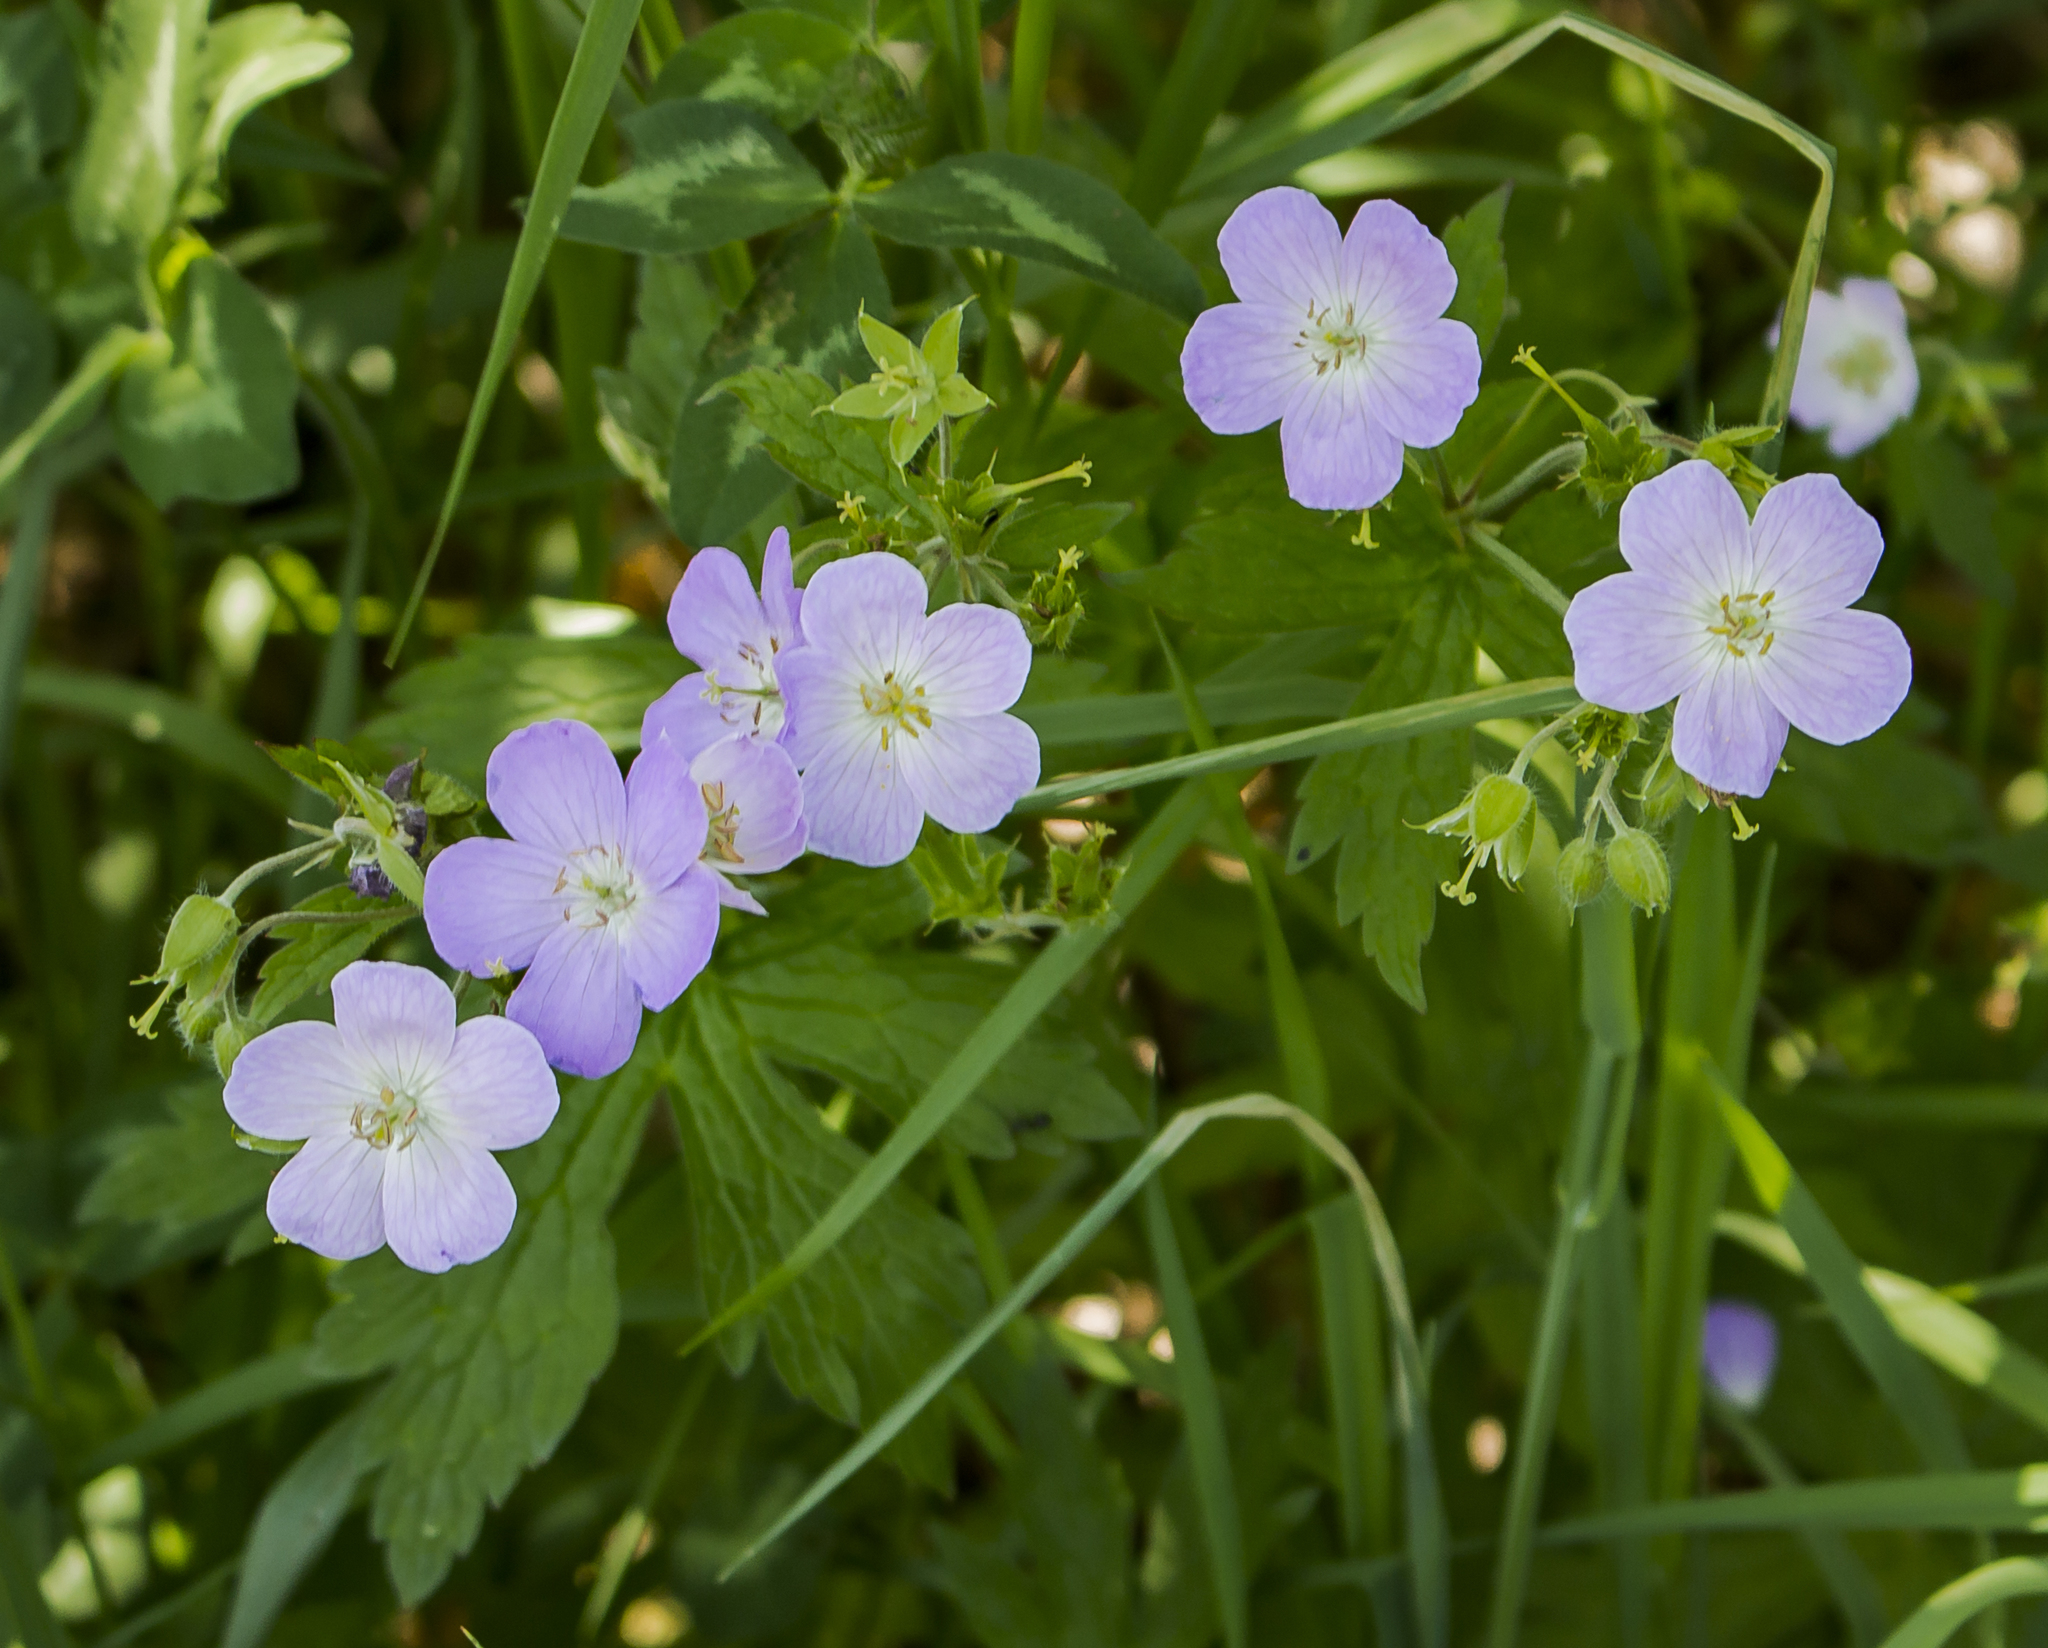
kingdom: Plantae
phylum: Tracheophyta
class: Magnoliopsida
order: Geraniales
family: Geraniaceae
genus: Geranium
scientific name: Geranium maculatum
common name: Spotted geranium
